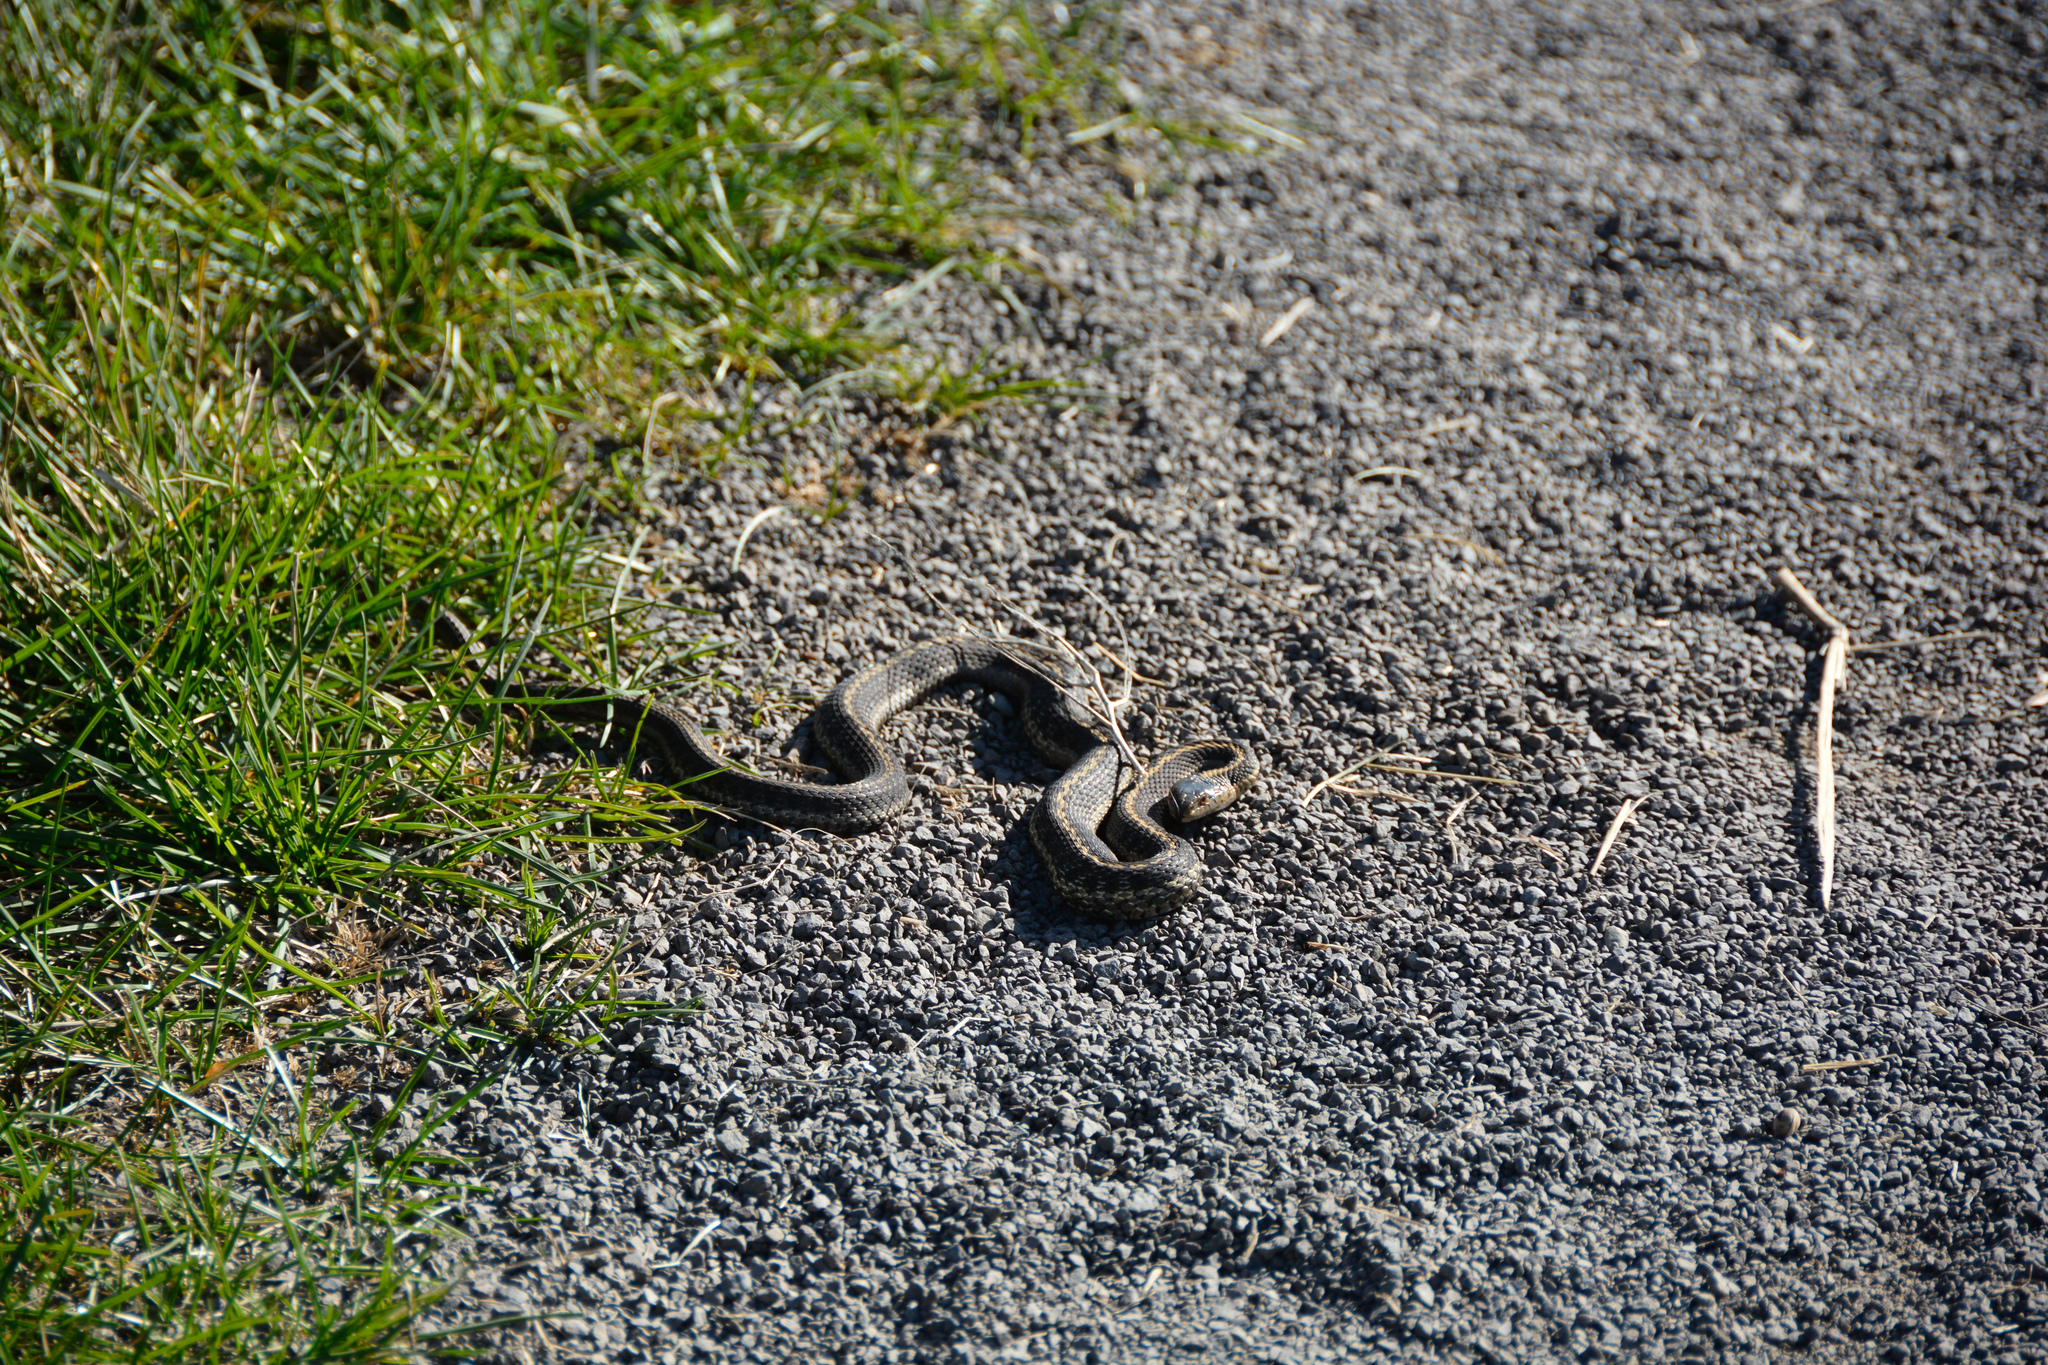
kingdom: Animalia
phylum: Chordata
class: Squamata
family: Colubridae
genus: Thamnophis
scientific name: Thamnophis elegans
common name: Western terrestrial garter snake
